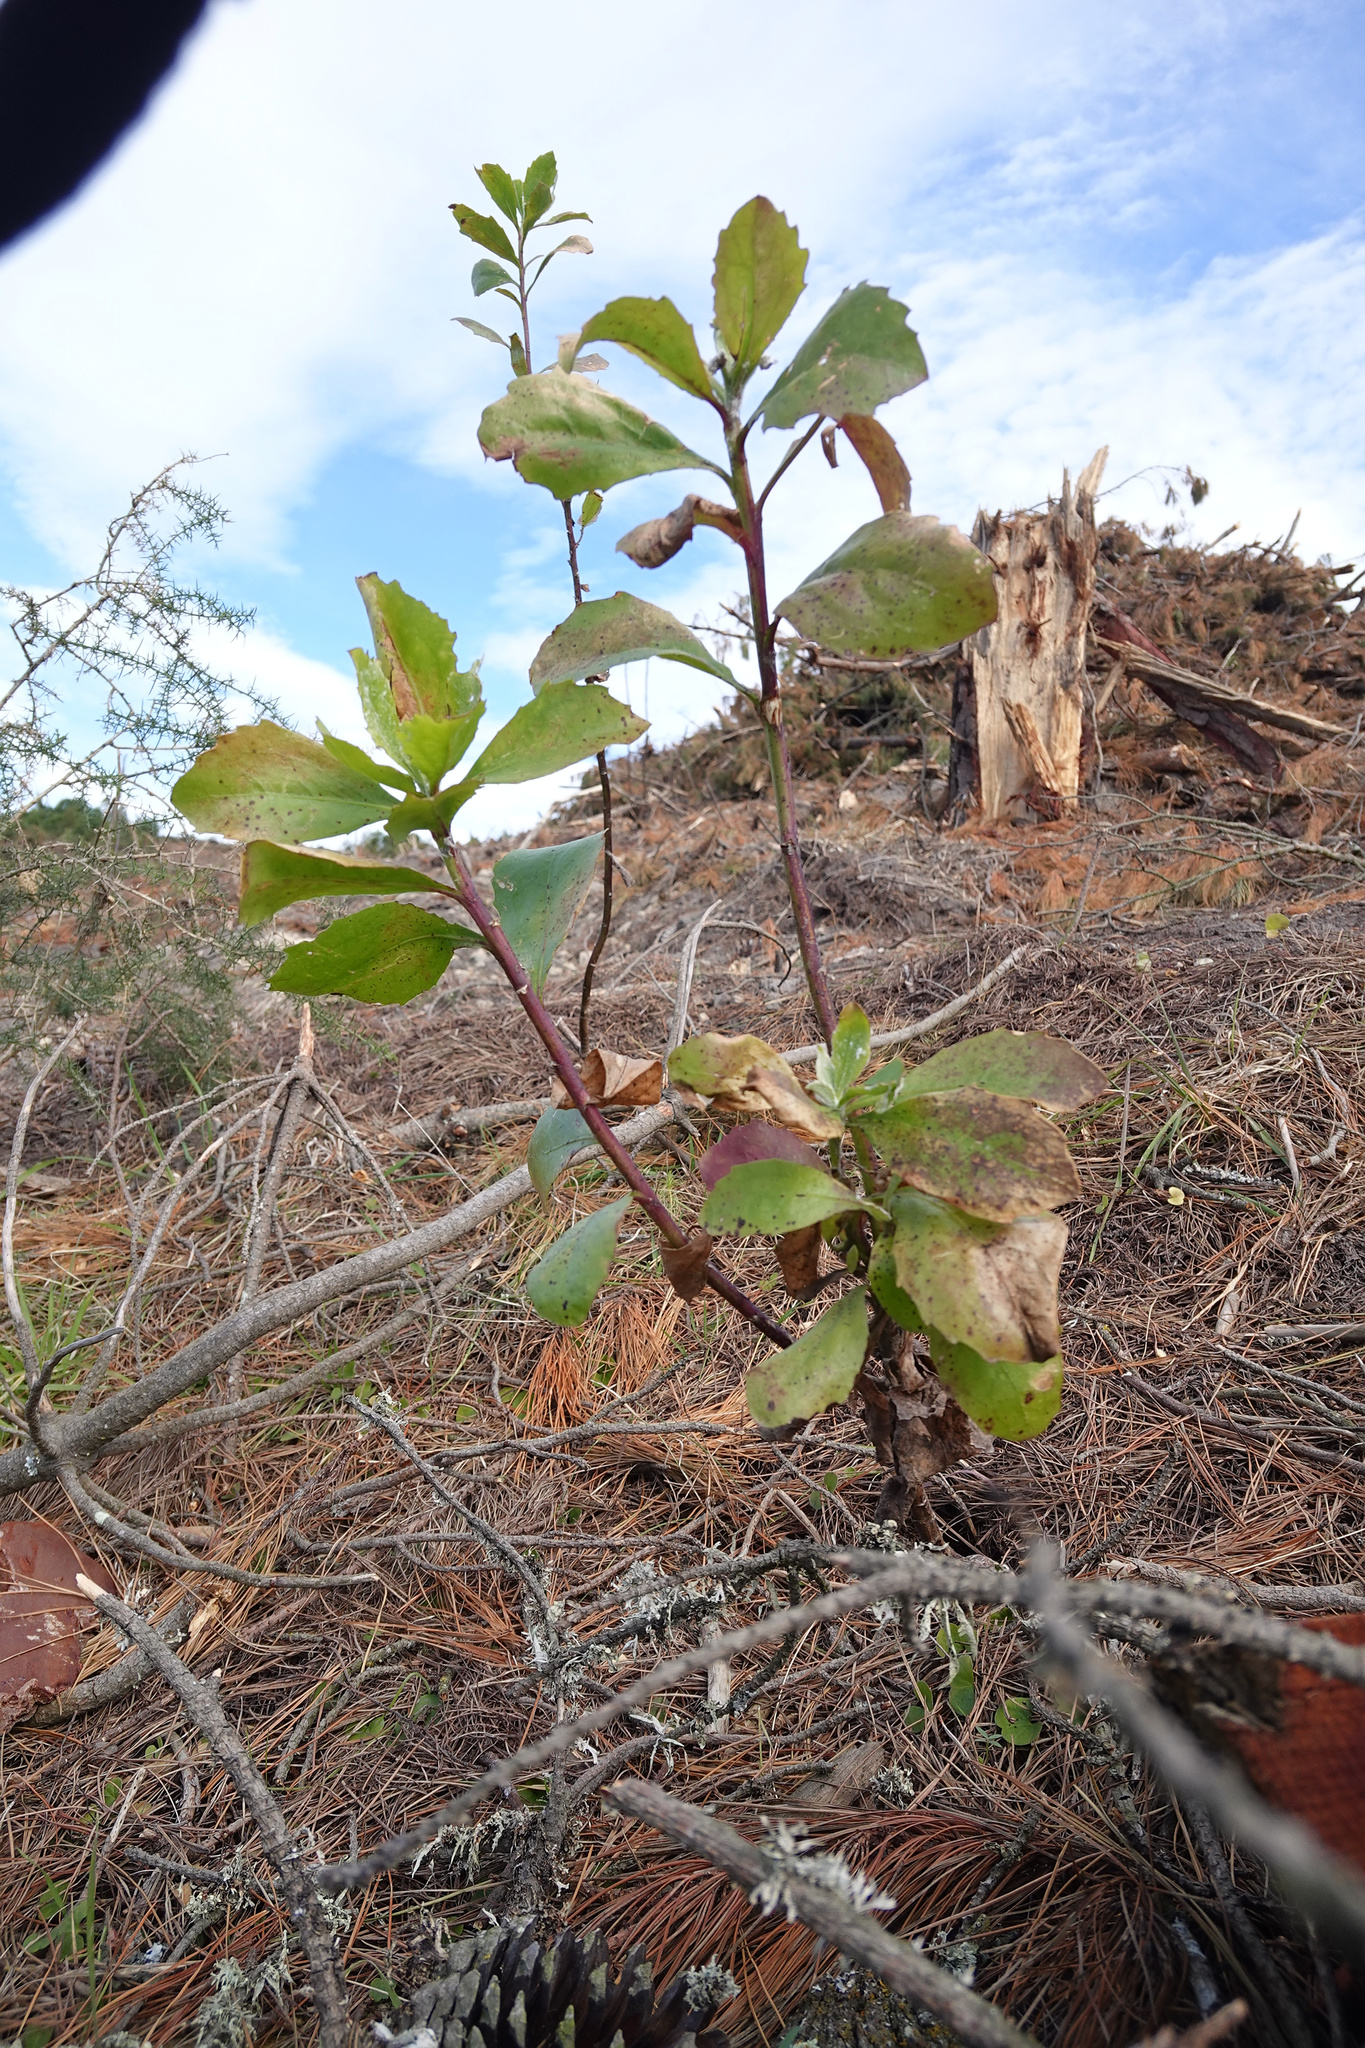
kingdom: Plantae
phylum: Tracheophyta
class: Magnoliopsida
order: Asterales
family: Asteraceae
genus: Osteospermum
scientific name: Osteospermum moniliferum
